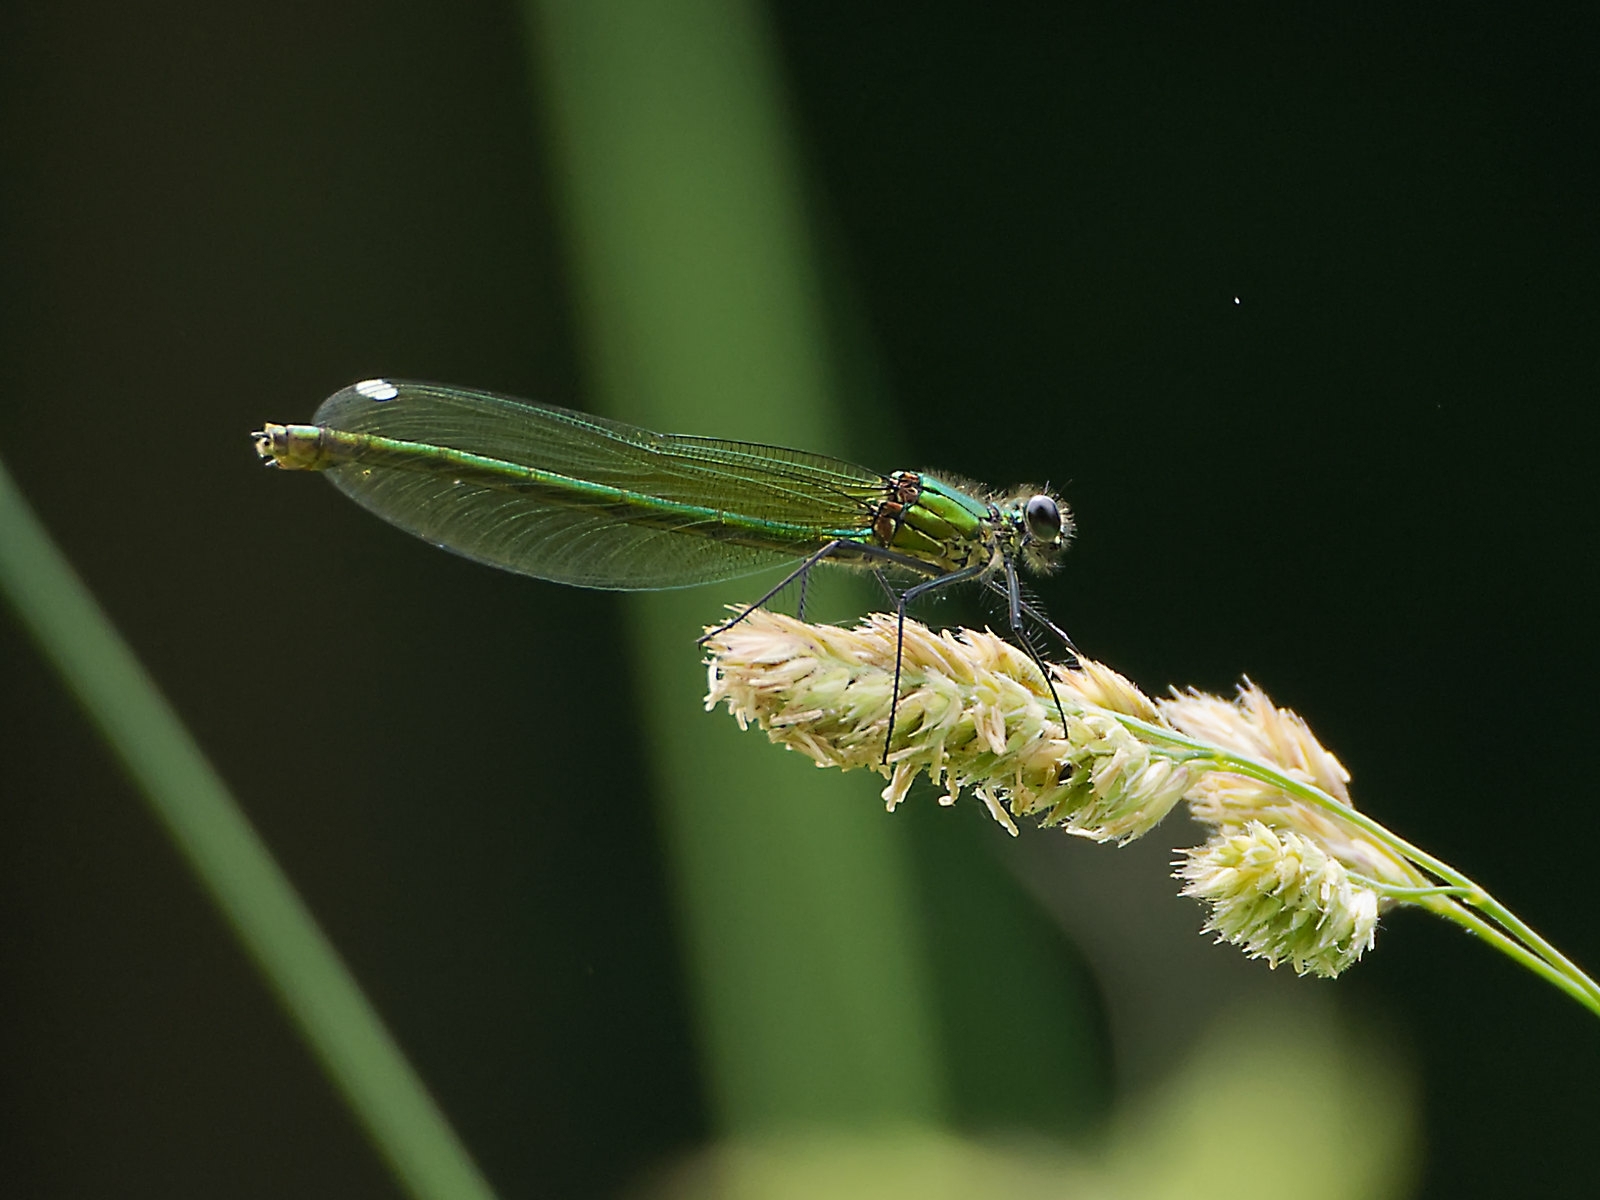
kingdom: Animalia
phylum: Arthropoda
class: Insecta
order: Odonata
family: Calopterygidae
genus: Calopteryx
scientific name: Calopteryx splendens
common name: Banded demoiselle
